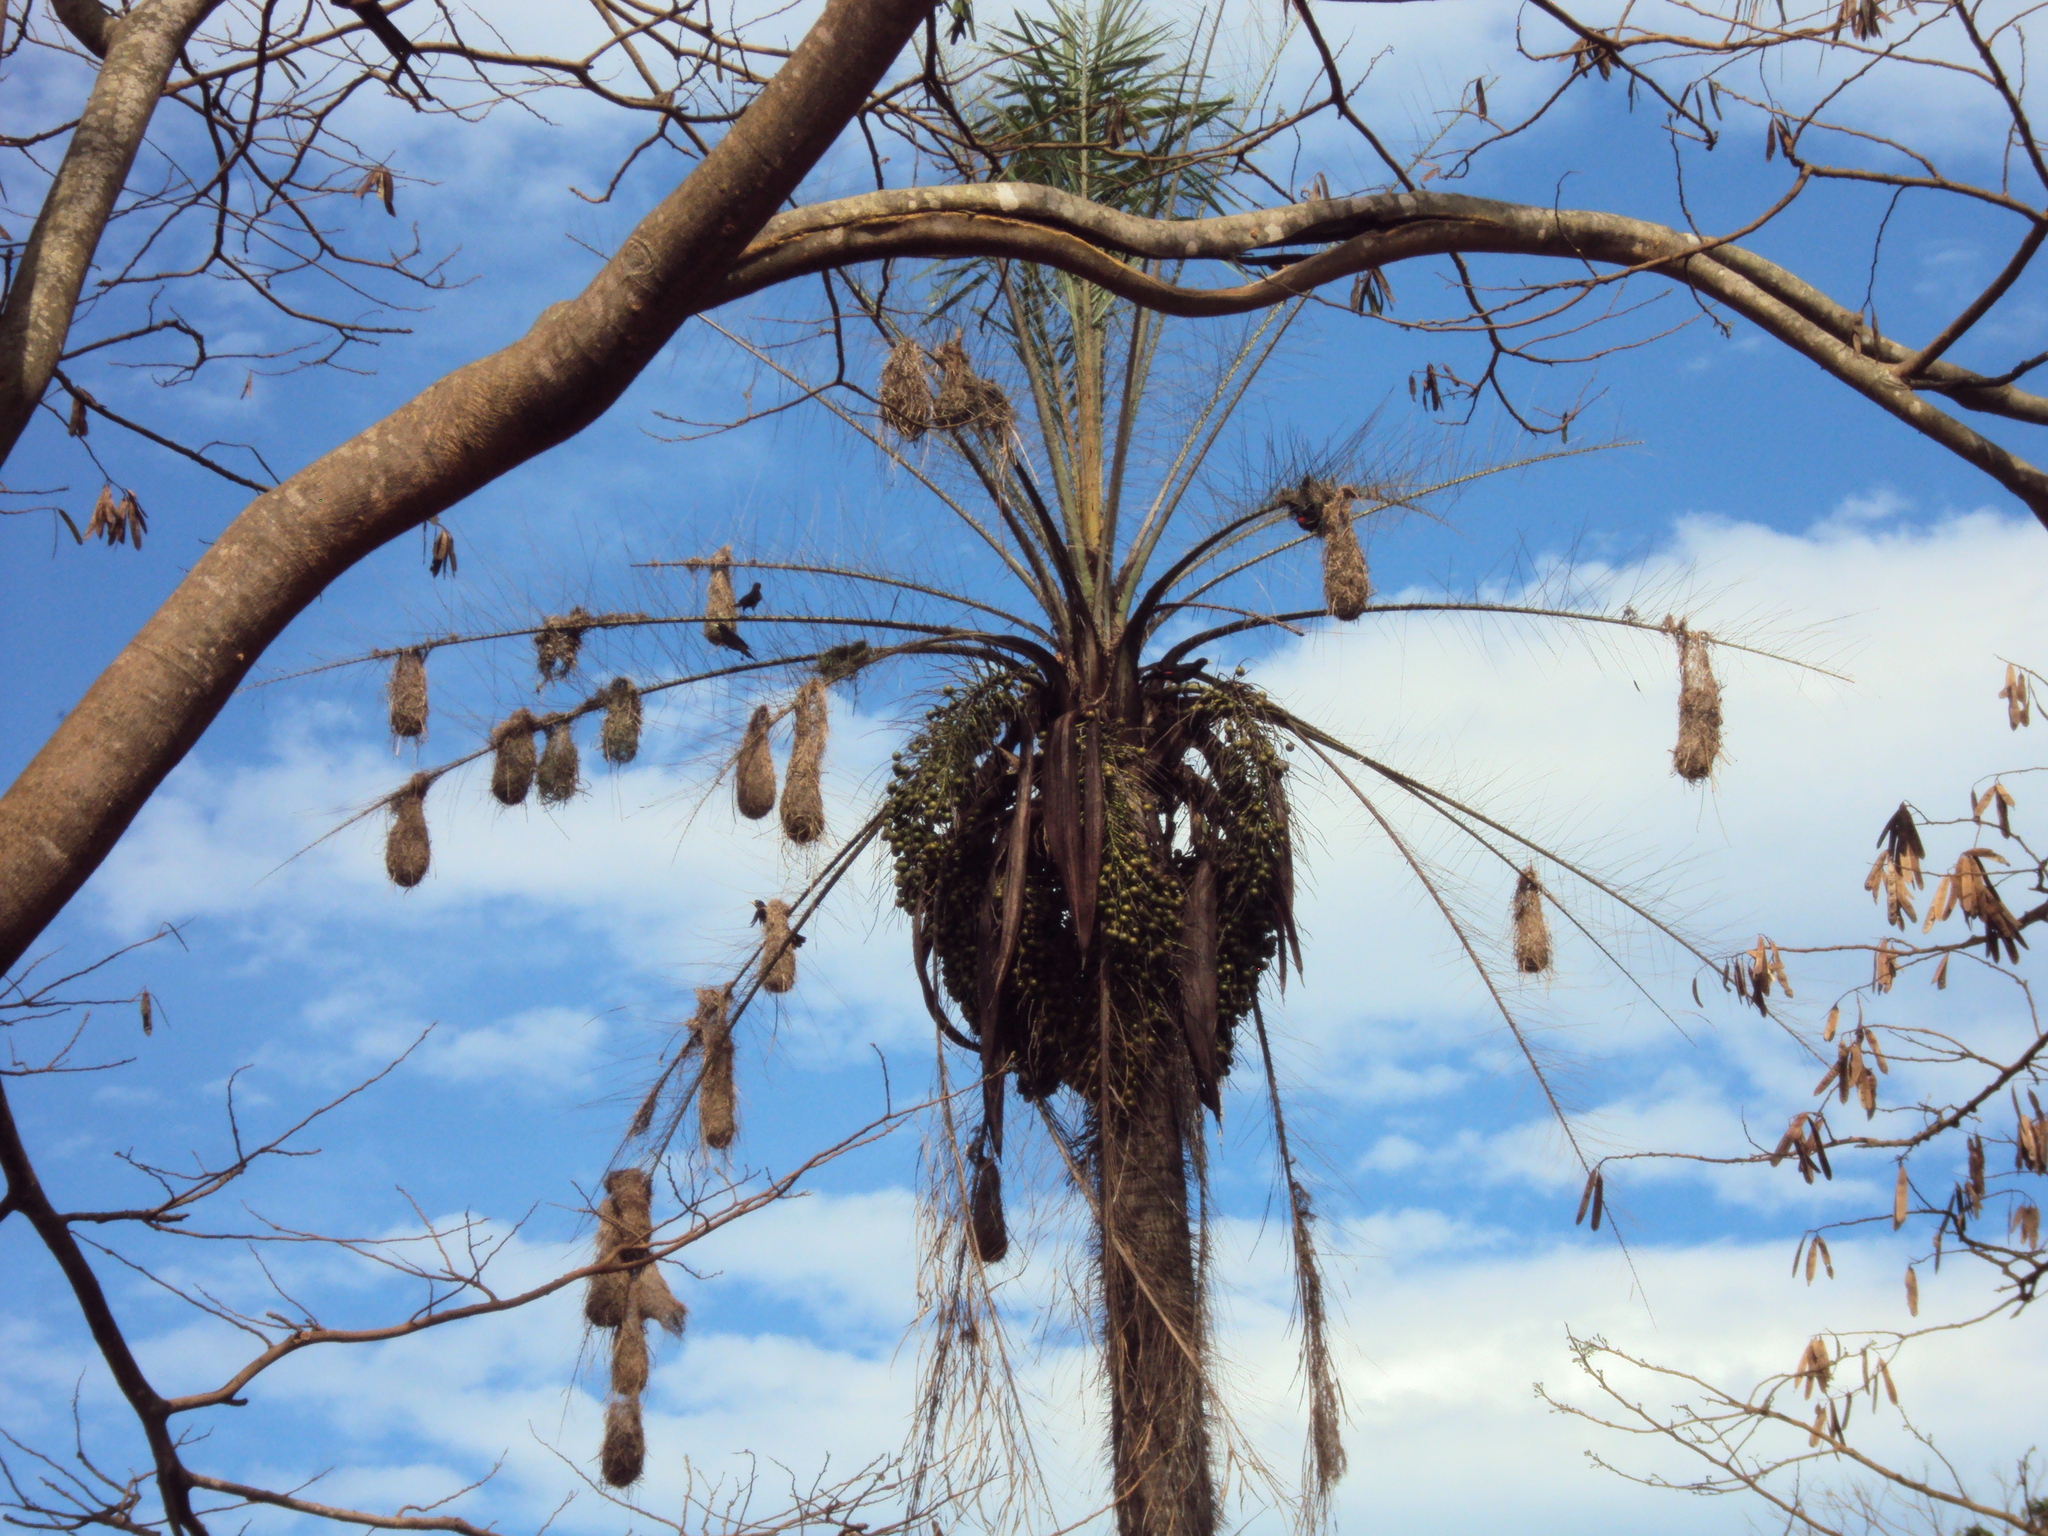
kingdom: Animalia
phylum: Chordata
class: Aves
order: Passeriformes
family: Icteridae
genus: Cacicus
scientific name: Cacicus haemorrhous
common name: Red-rumped cacique
